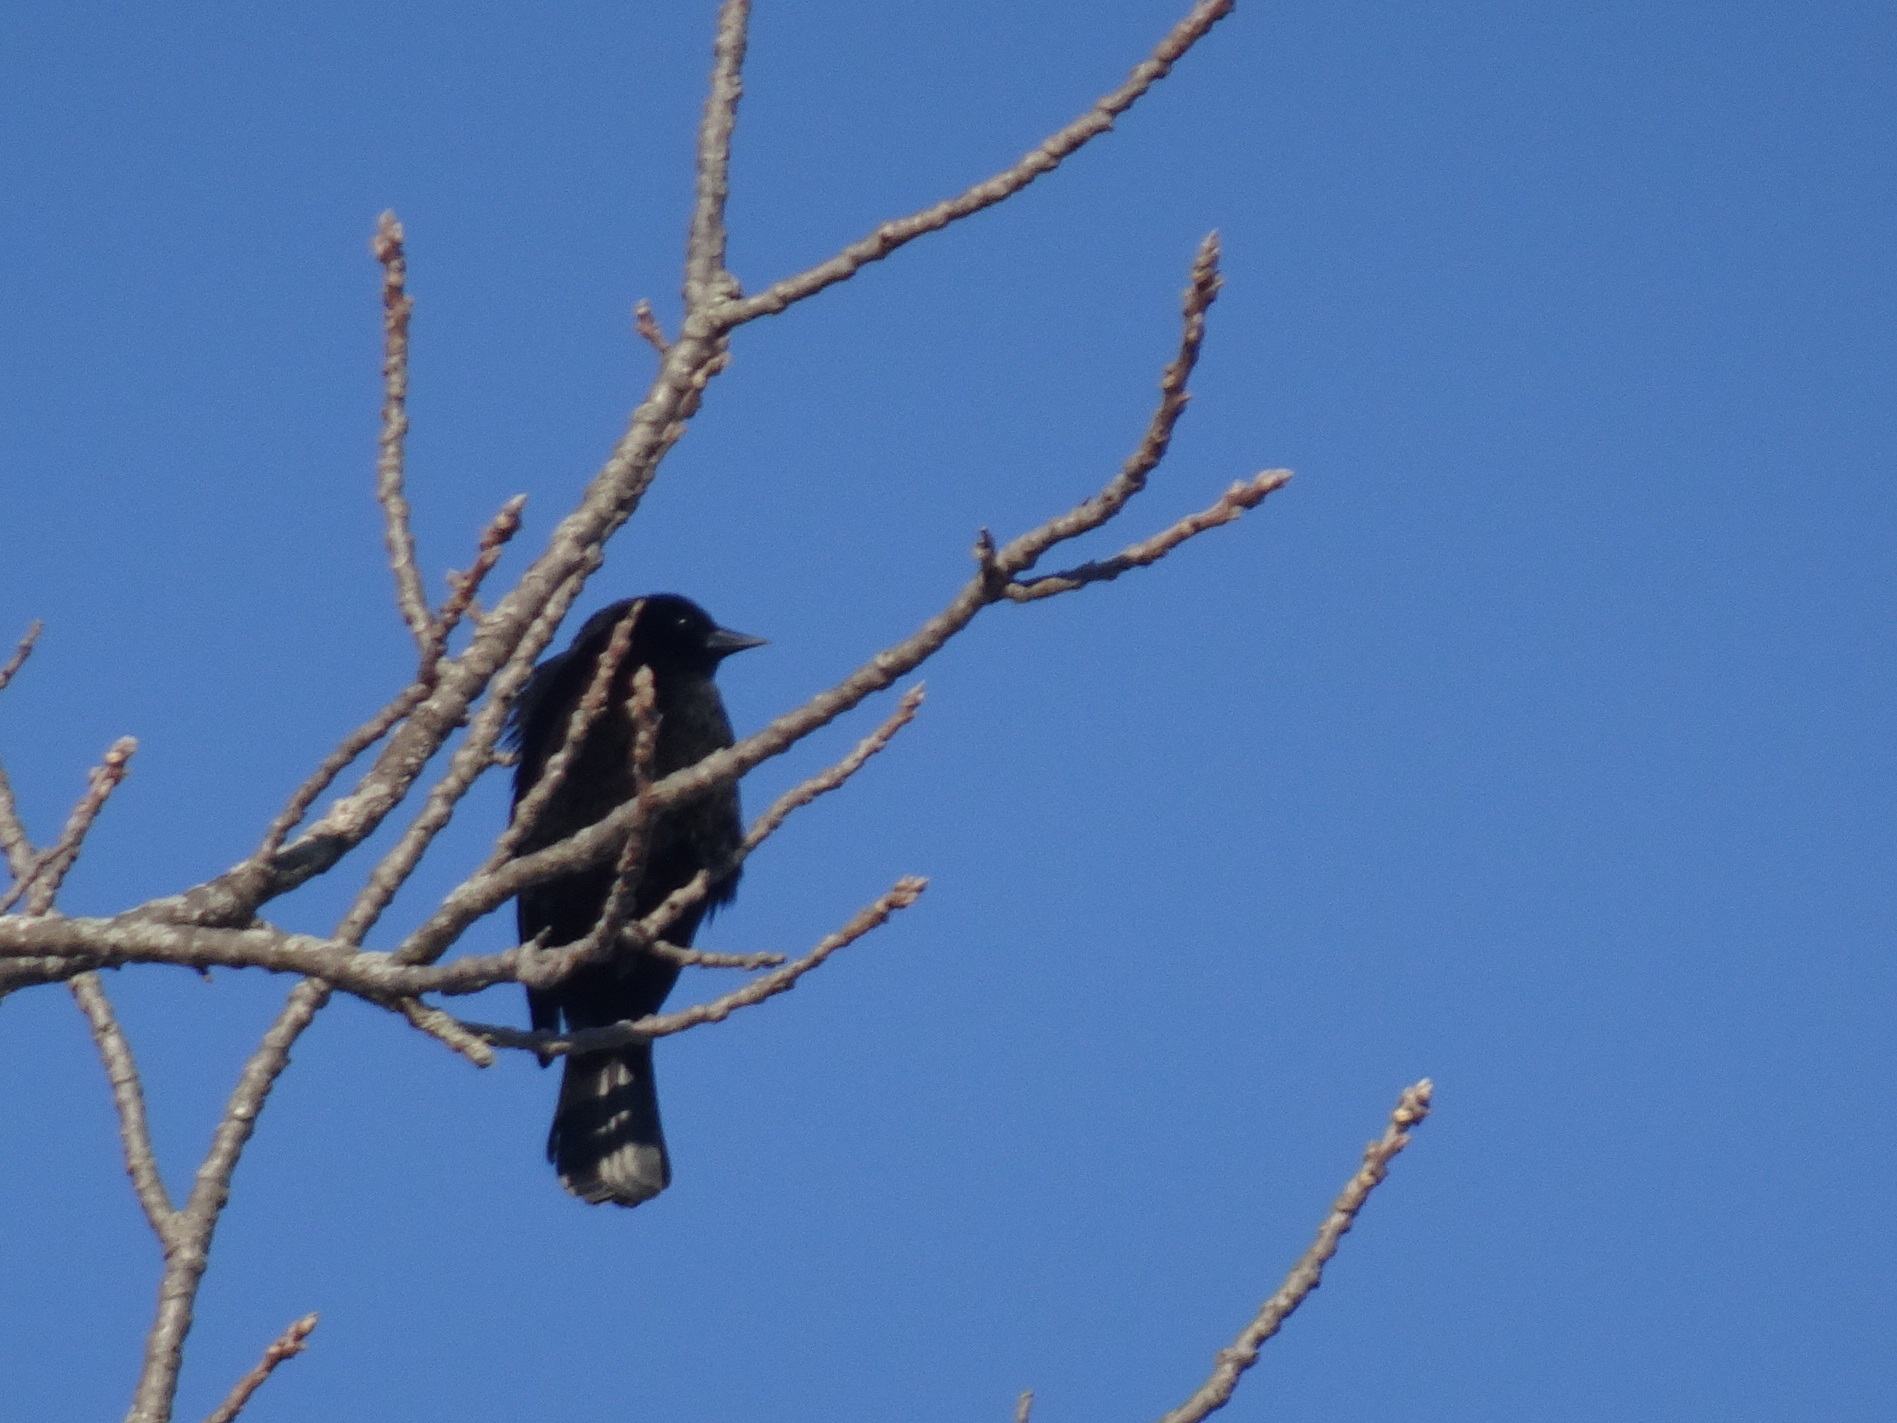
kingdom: Animalia
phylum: Chordata
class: Aves
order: Passeriformes
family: Icteridae
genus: Agelaius
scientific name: Agelaius phoeniceus
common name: Red-winged blackbird
